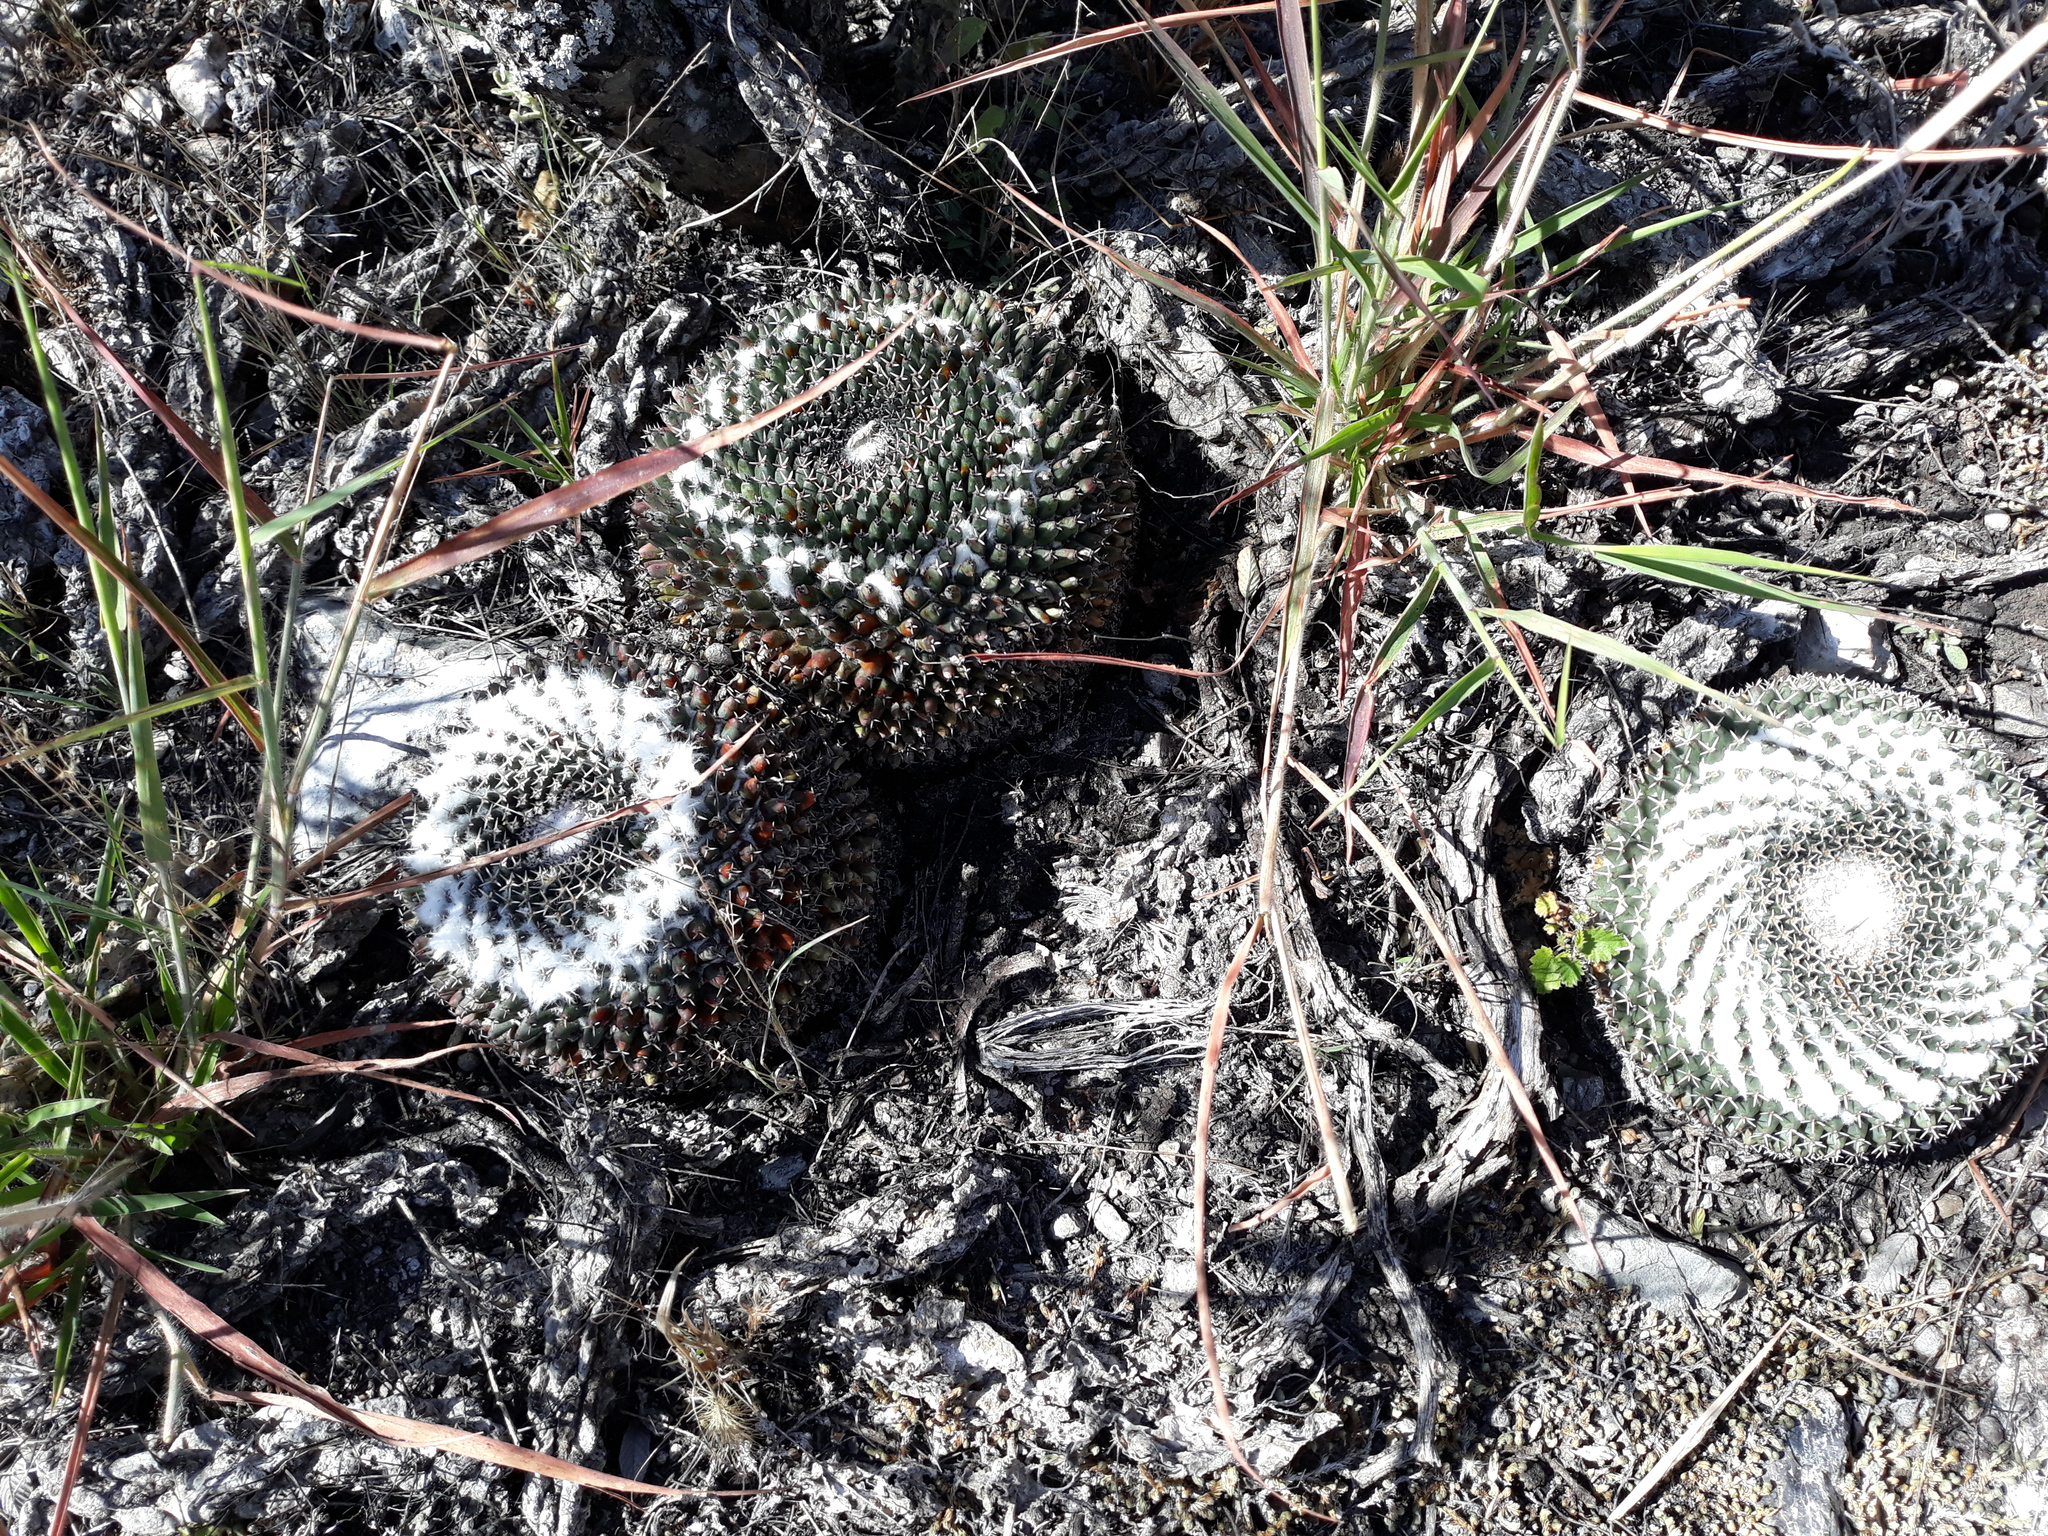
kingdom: Plantae
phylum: Tracheophyta
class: Magnoliopsida
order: Caryophyllales
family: Cactaceae
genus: Mammillaria
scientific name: Mammillaria
